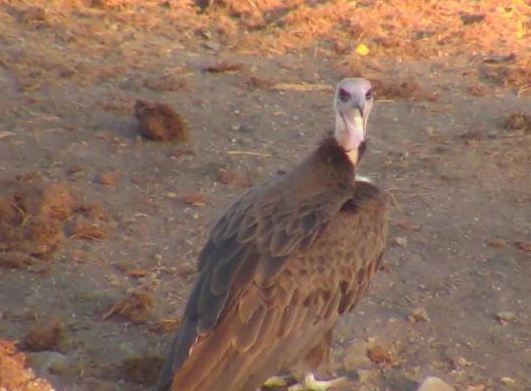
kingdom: Animalia
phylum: Chordata
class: Aves
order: Accipitriformes
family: Accipitridae
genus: Necrosyrtes
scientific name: Necrosyrtes monachus
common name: Hooded vulture
